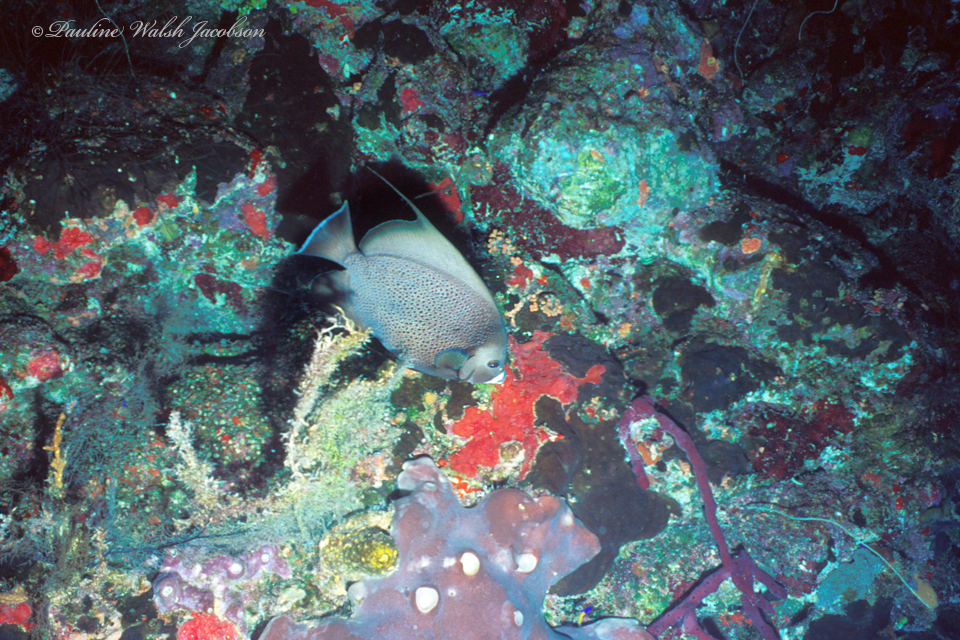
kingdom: Animalia
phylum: Chordata
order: Perciformes
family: Pomacanthidae
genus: Pomacanthus
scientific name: Pomacanthus arcuatus
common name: Gray angelfish
